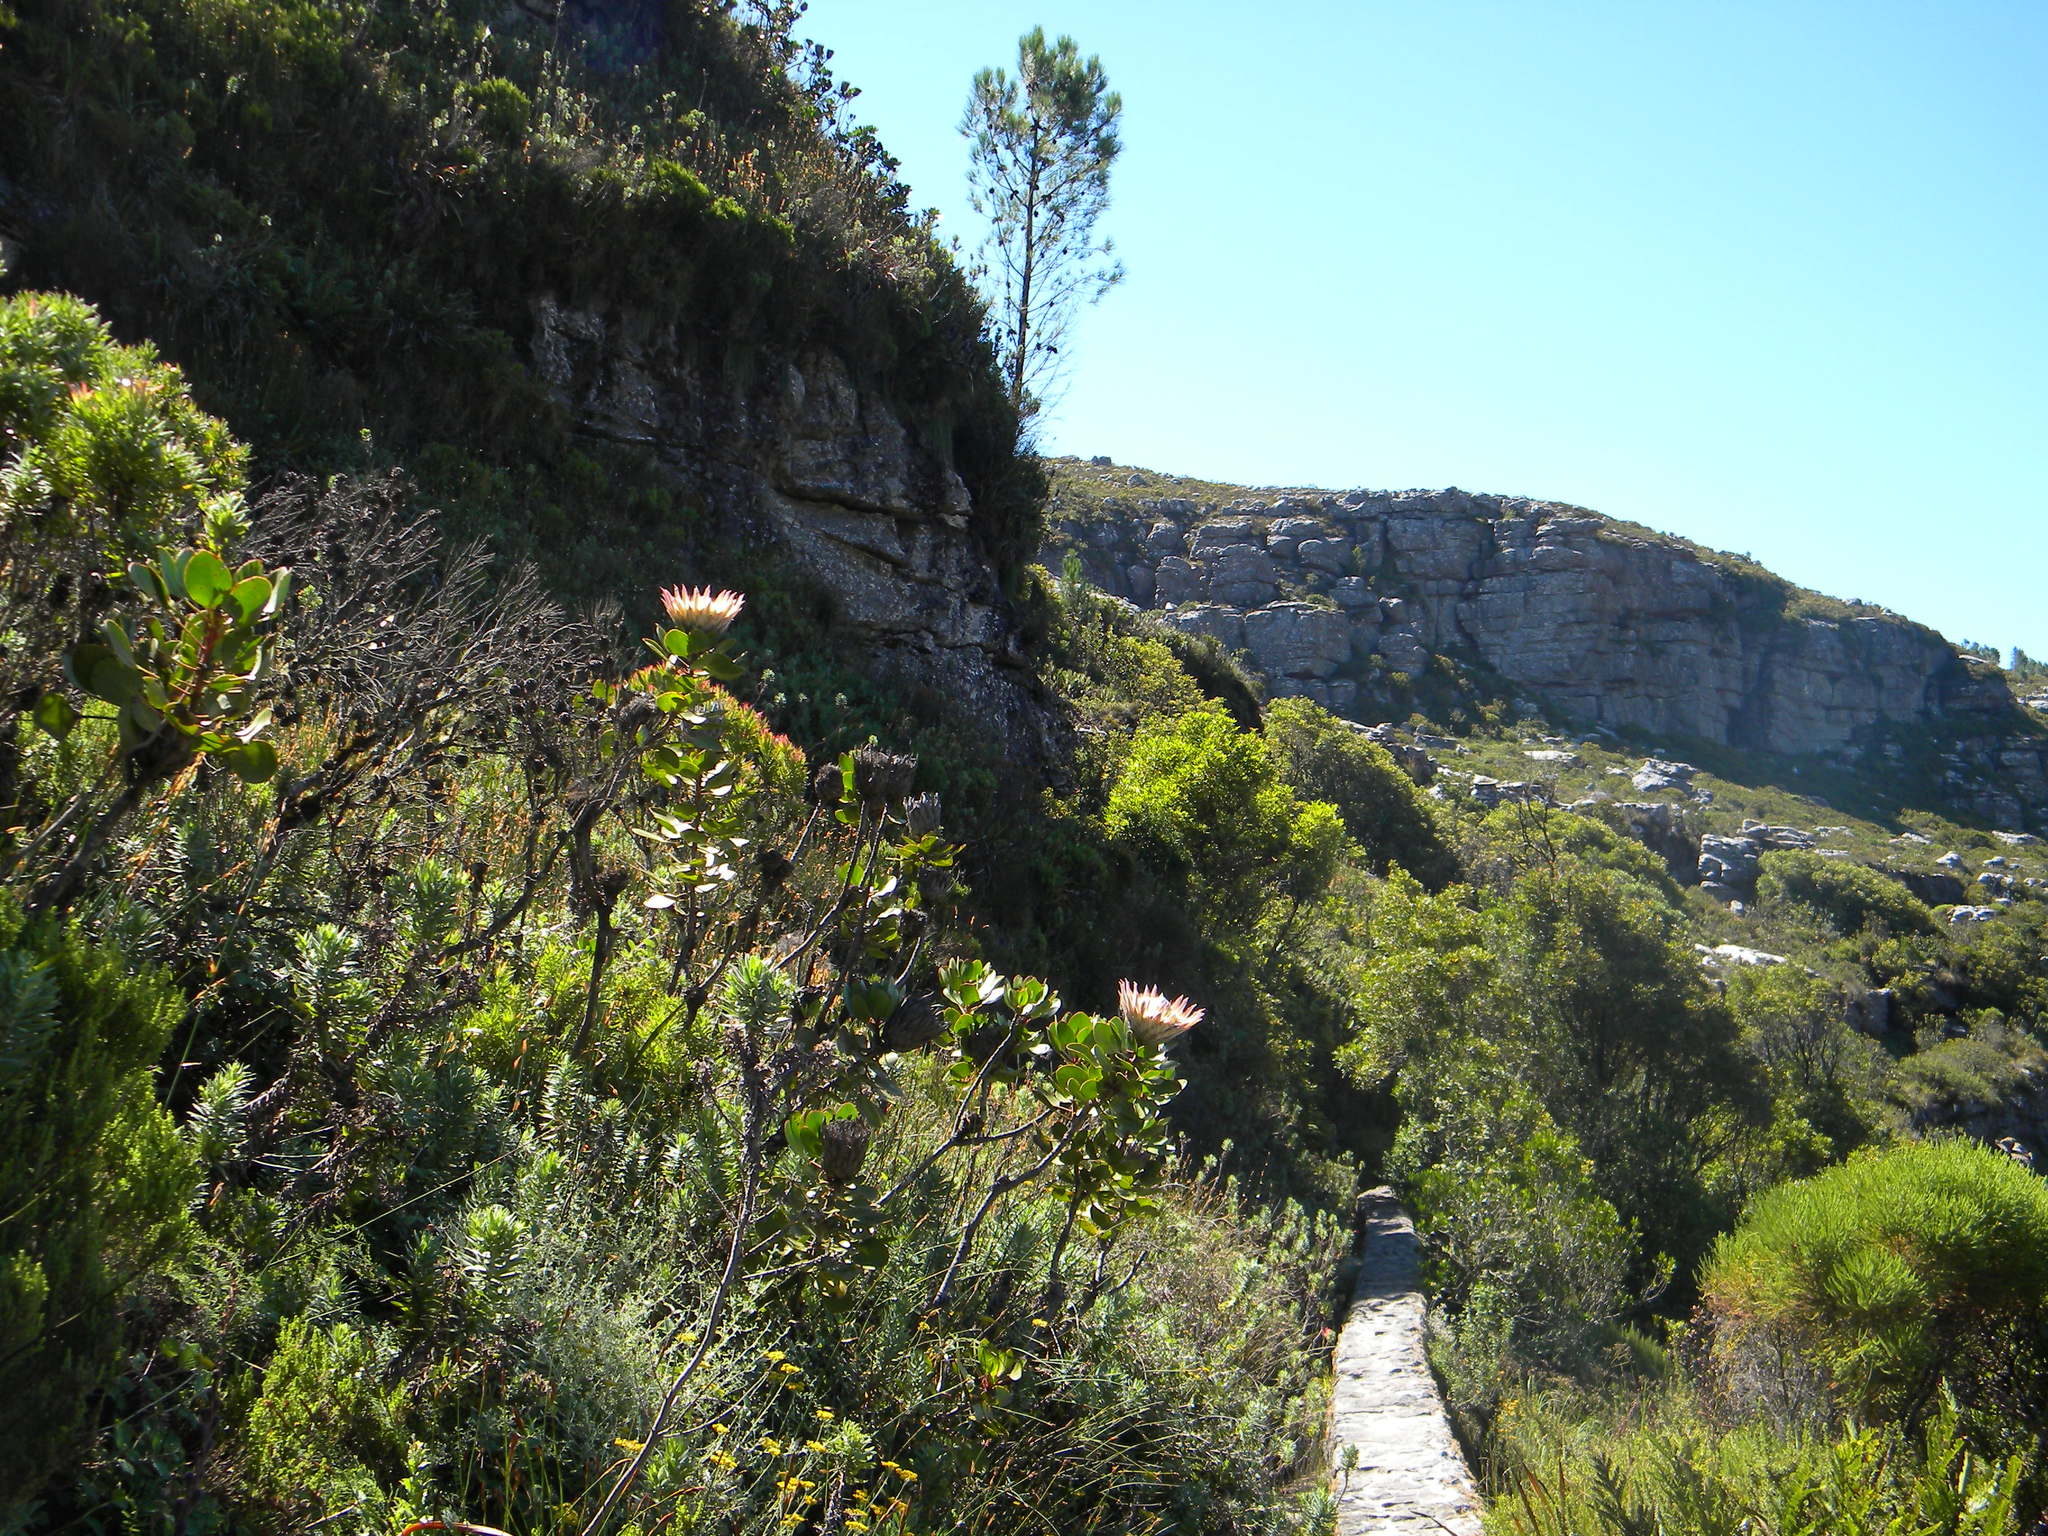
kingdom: Plantae
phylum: Tracheophyta
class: Magnoliopsida
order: Proteales
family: Proteaceae
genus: Protea
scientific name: Protea cynaroides
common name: King protea
